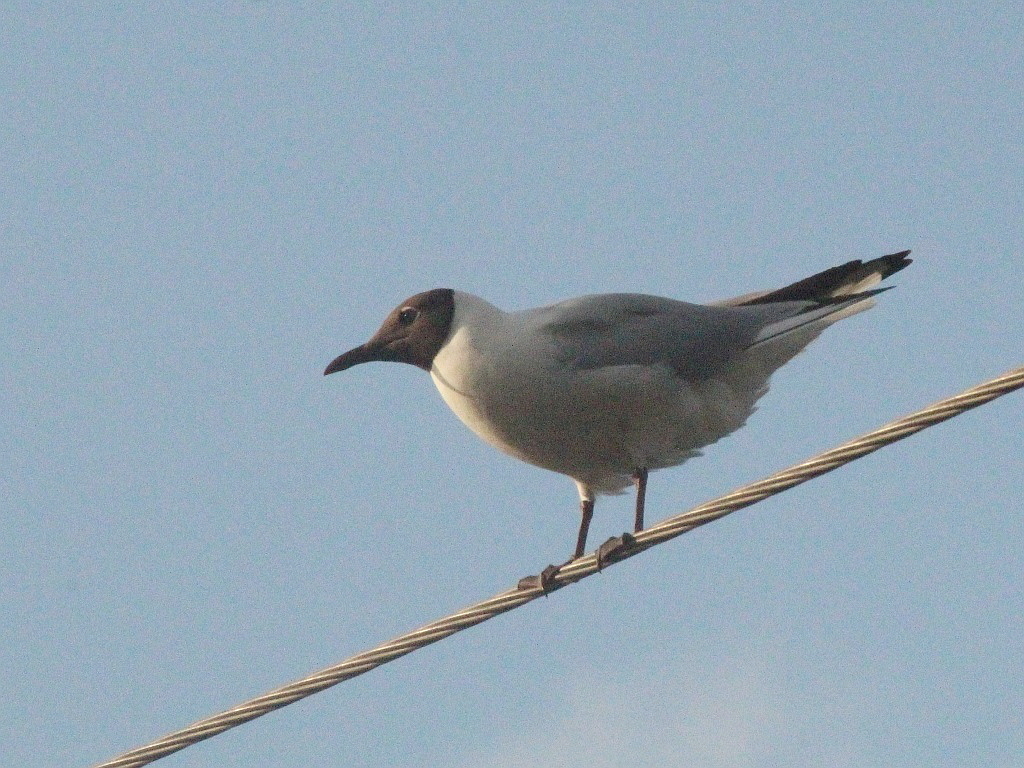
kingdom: Animalia
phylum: Chordata
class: Aves
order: Charadriiformes
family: Laridae
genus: Chroicocephalus
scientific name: Chroicocephalus ridibundus
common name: Black-headed gull
